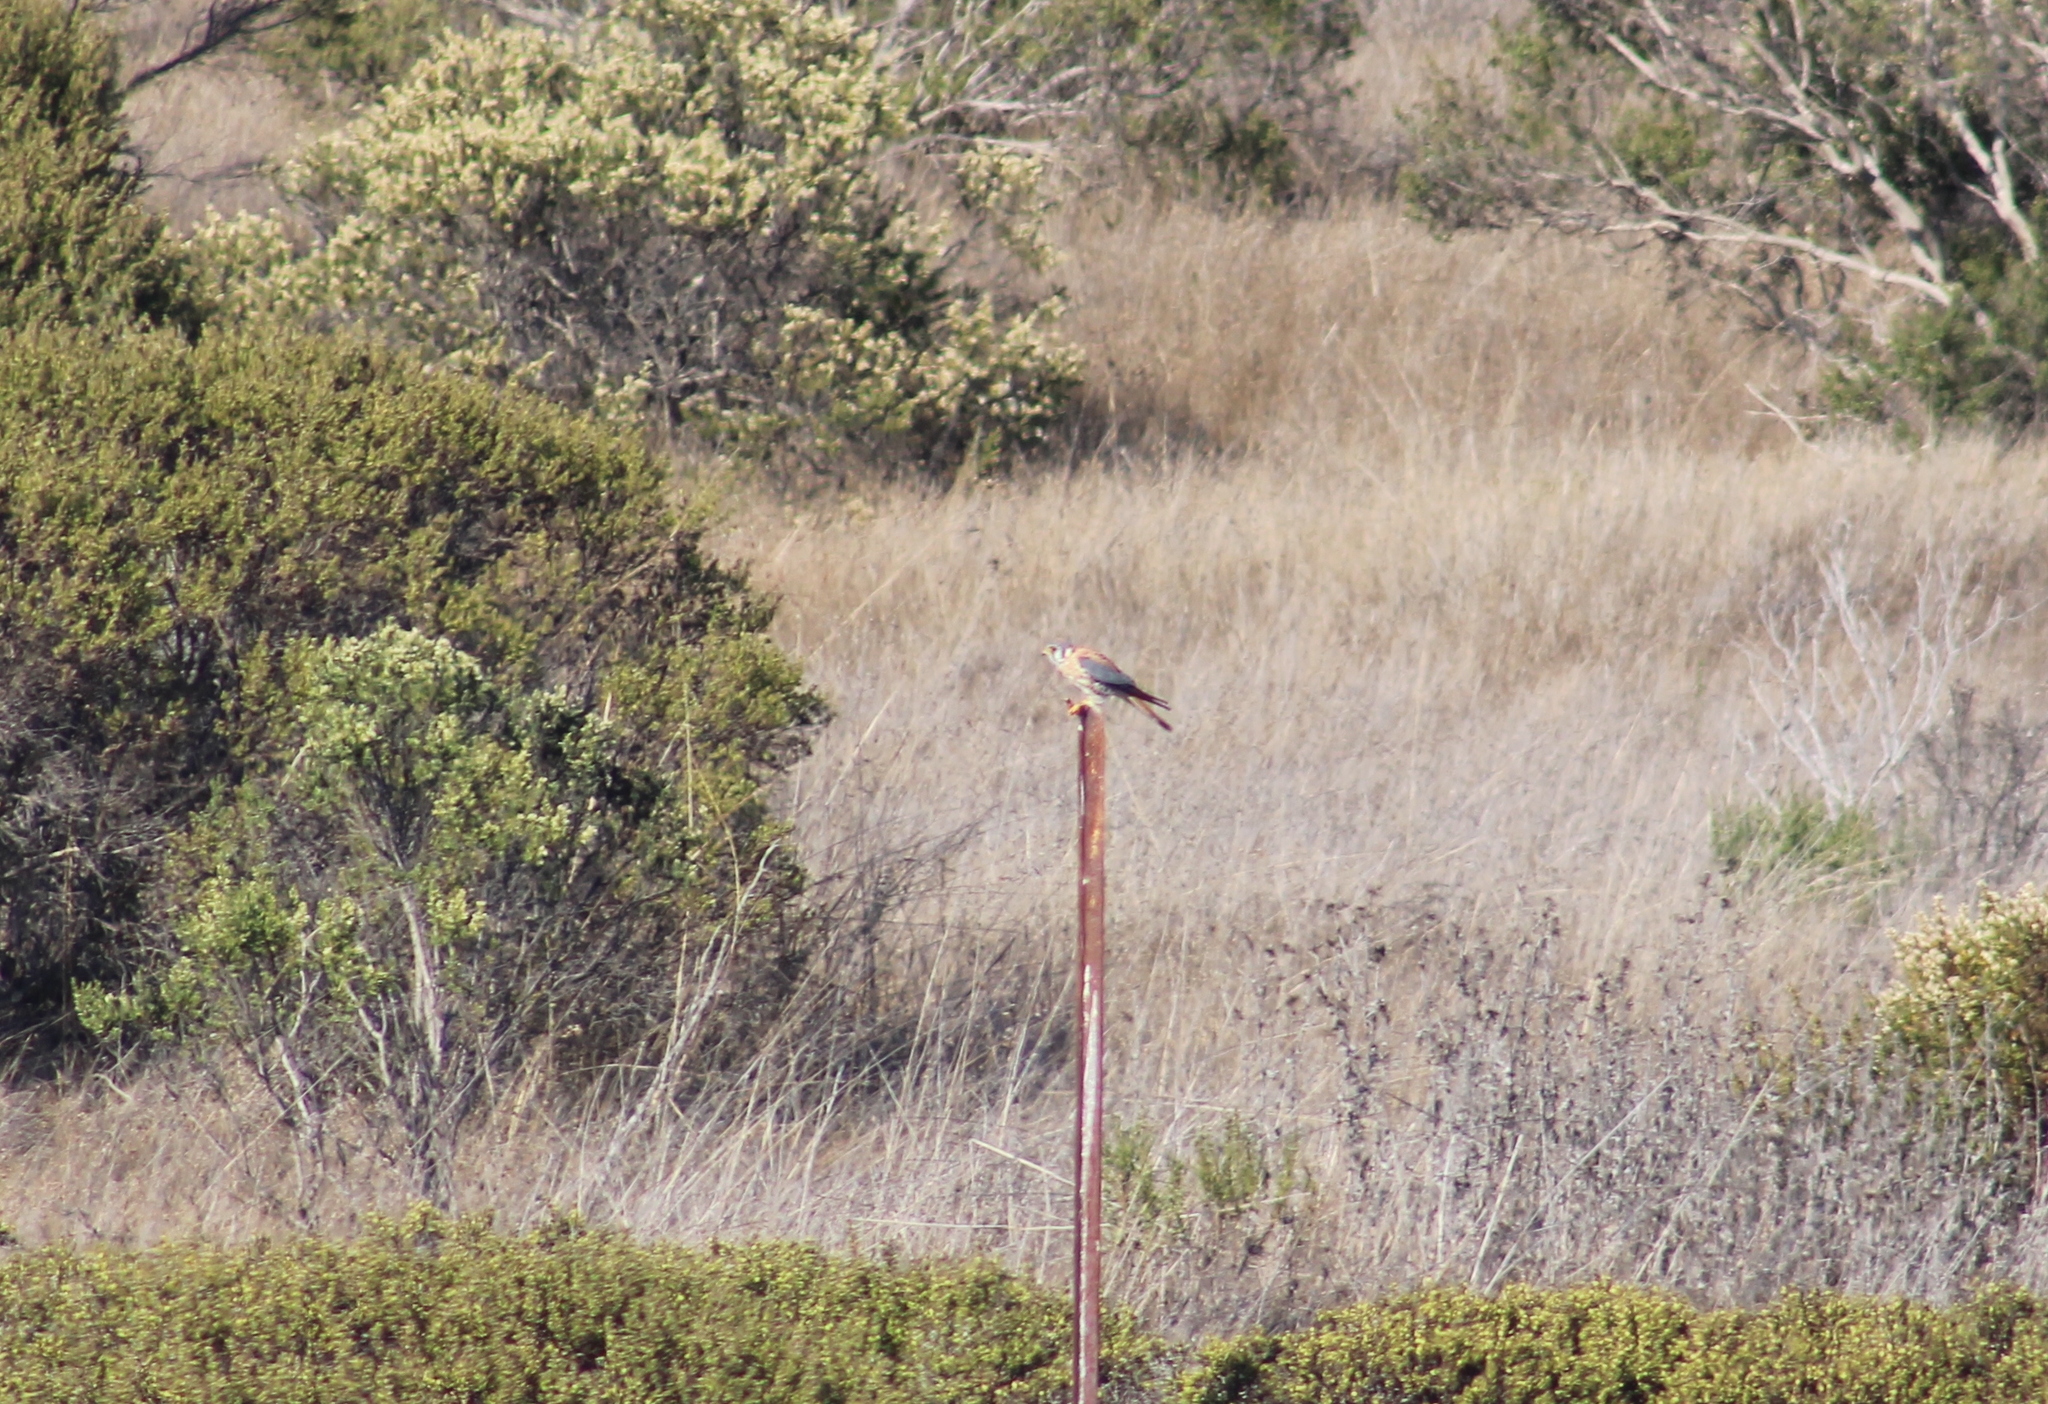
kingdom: Animalia
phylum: Chordata
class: Aves
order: Falconiformes
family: Falconidae
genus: Falco
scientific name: Falco sparverius
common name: American kestrel
